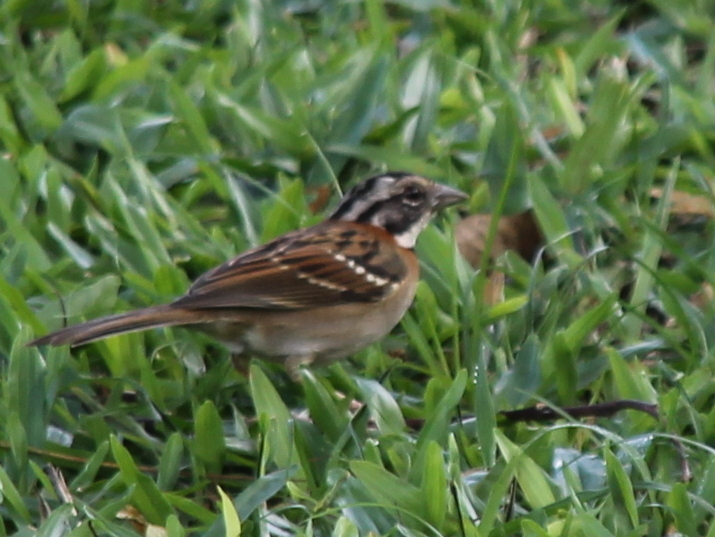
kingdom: Animalia
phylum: Chordata
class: Aves
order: Passeriformes
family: Passerellidae
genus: Zonotrichia
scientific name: Zonotrichia capensis
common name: Rufous-collared sparrow
